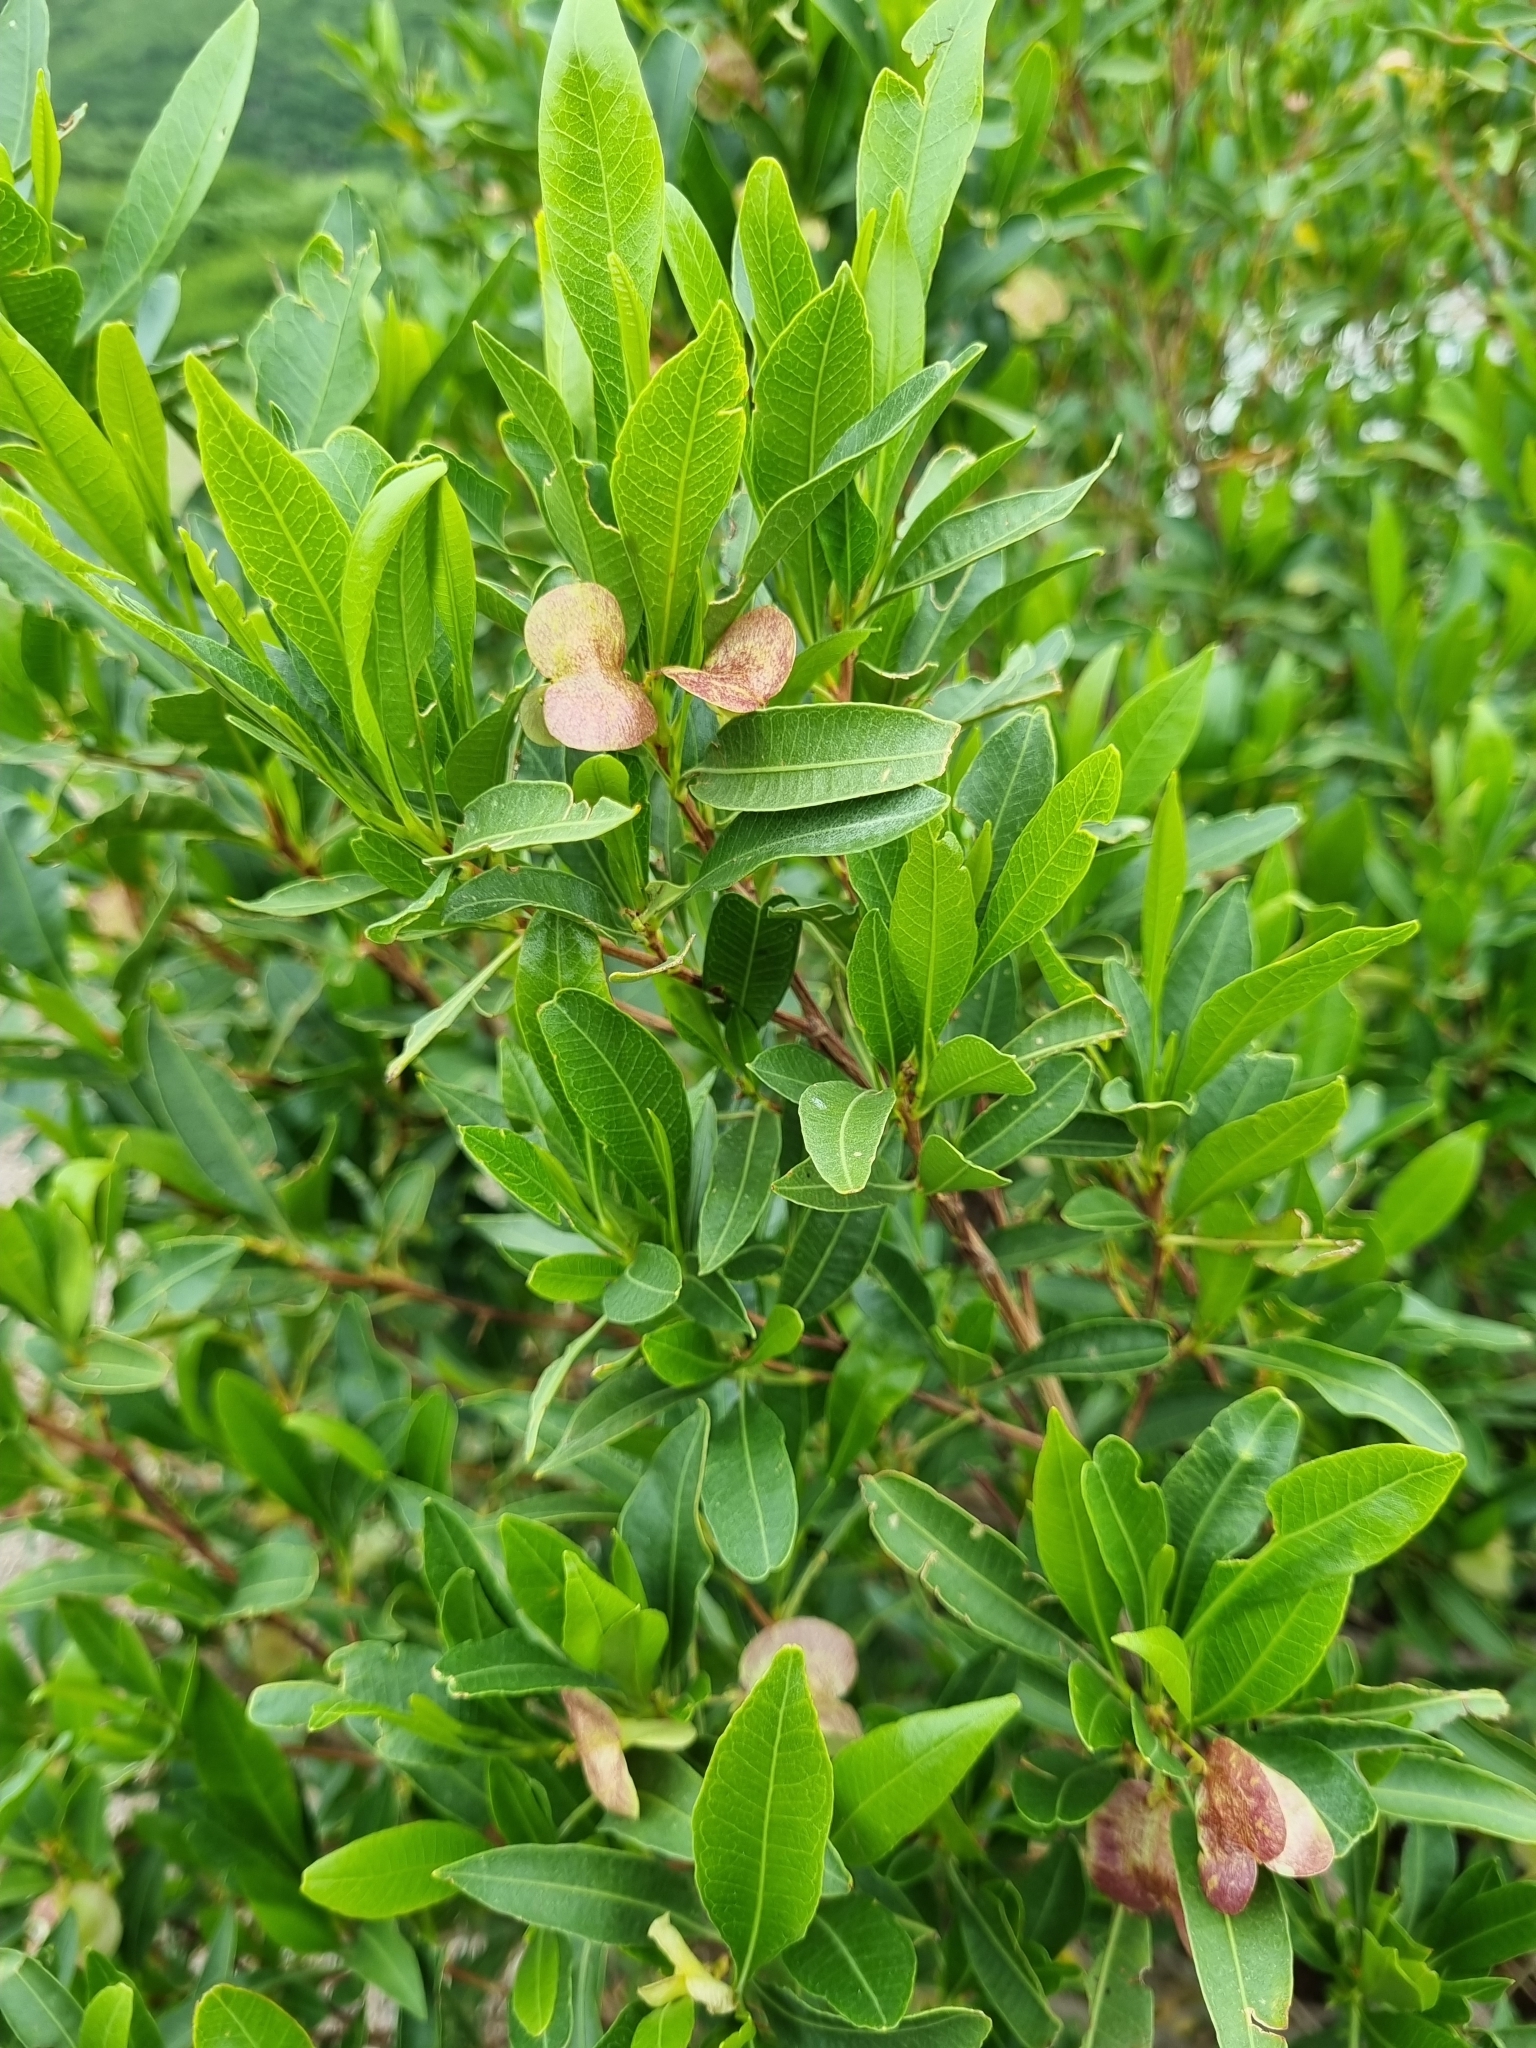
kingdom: Plantae
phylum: Tracheophyta
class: Magnoliopsida
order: Sapindales
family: Sapindaceae
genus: Dodonaea
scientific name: Dodonaea viscosa
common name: Hopbush
